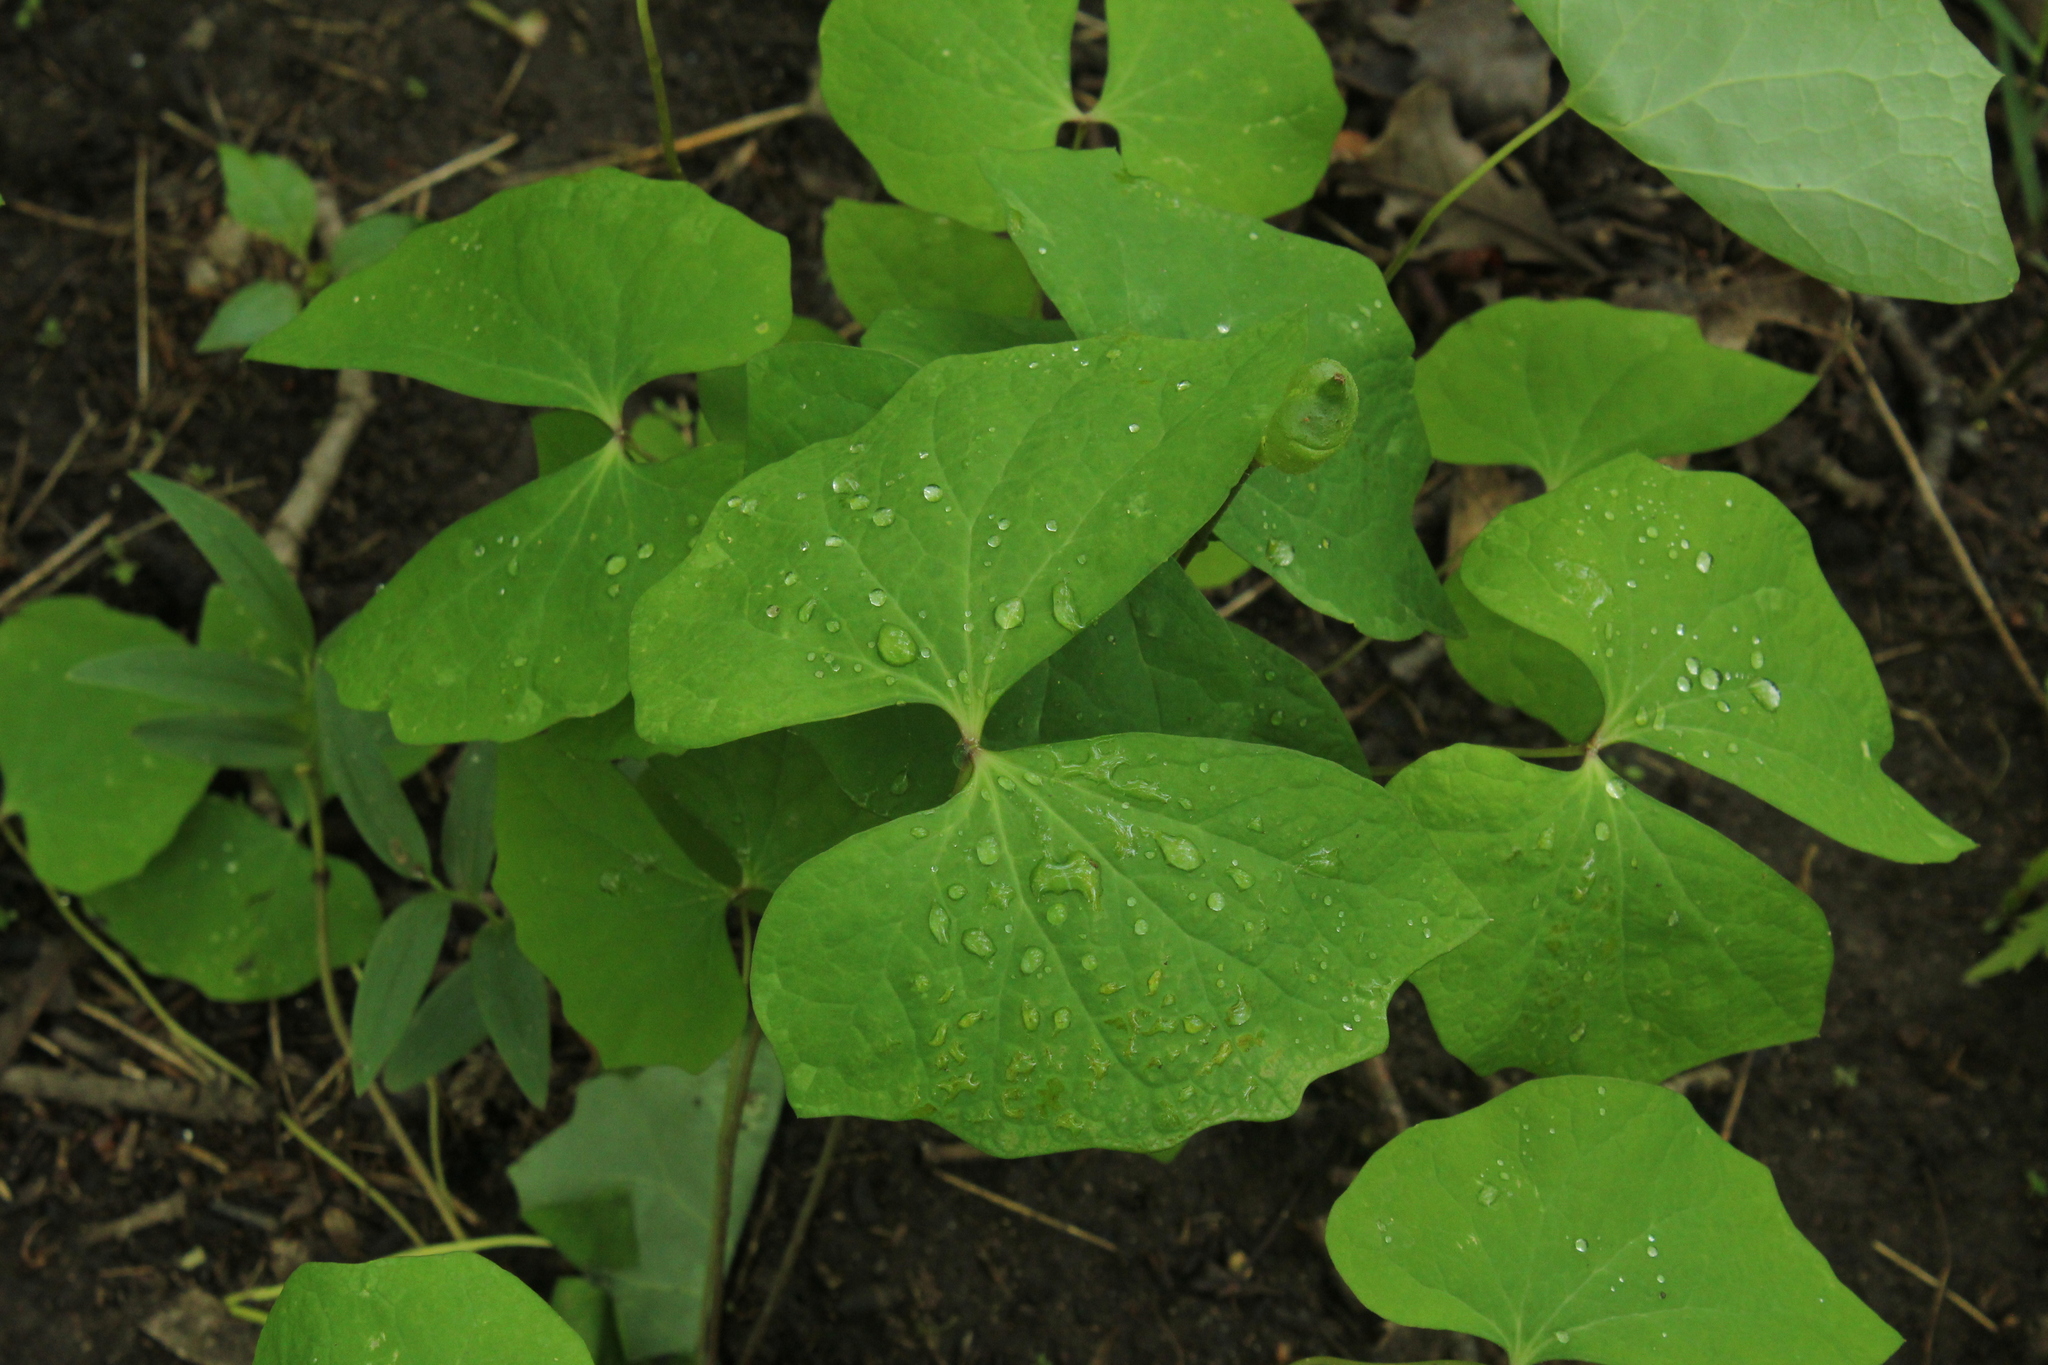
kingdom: Plantae
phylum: Tracheophyta
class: Magnoliopsida
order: Ranunculales
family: Berberidaceae
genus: Jeffersonia
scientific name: Jeffersonia diphylla
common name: Rheumatism-root
